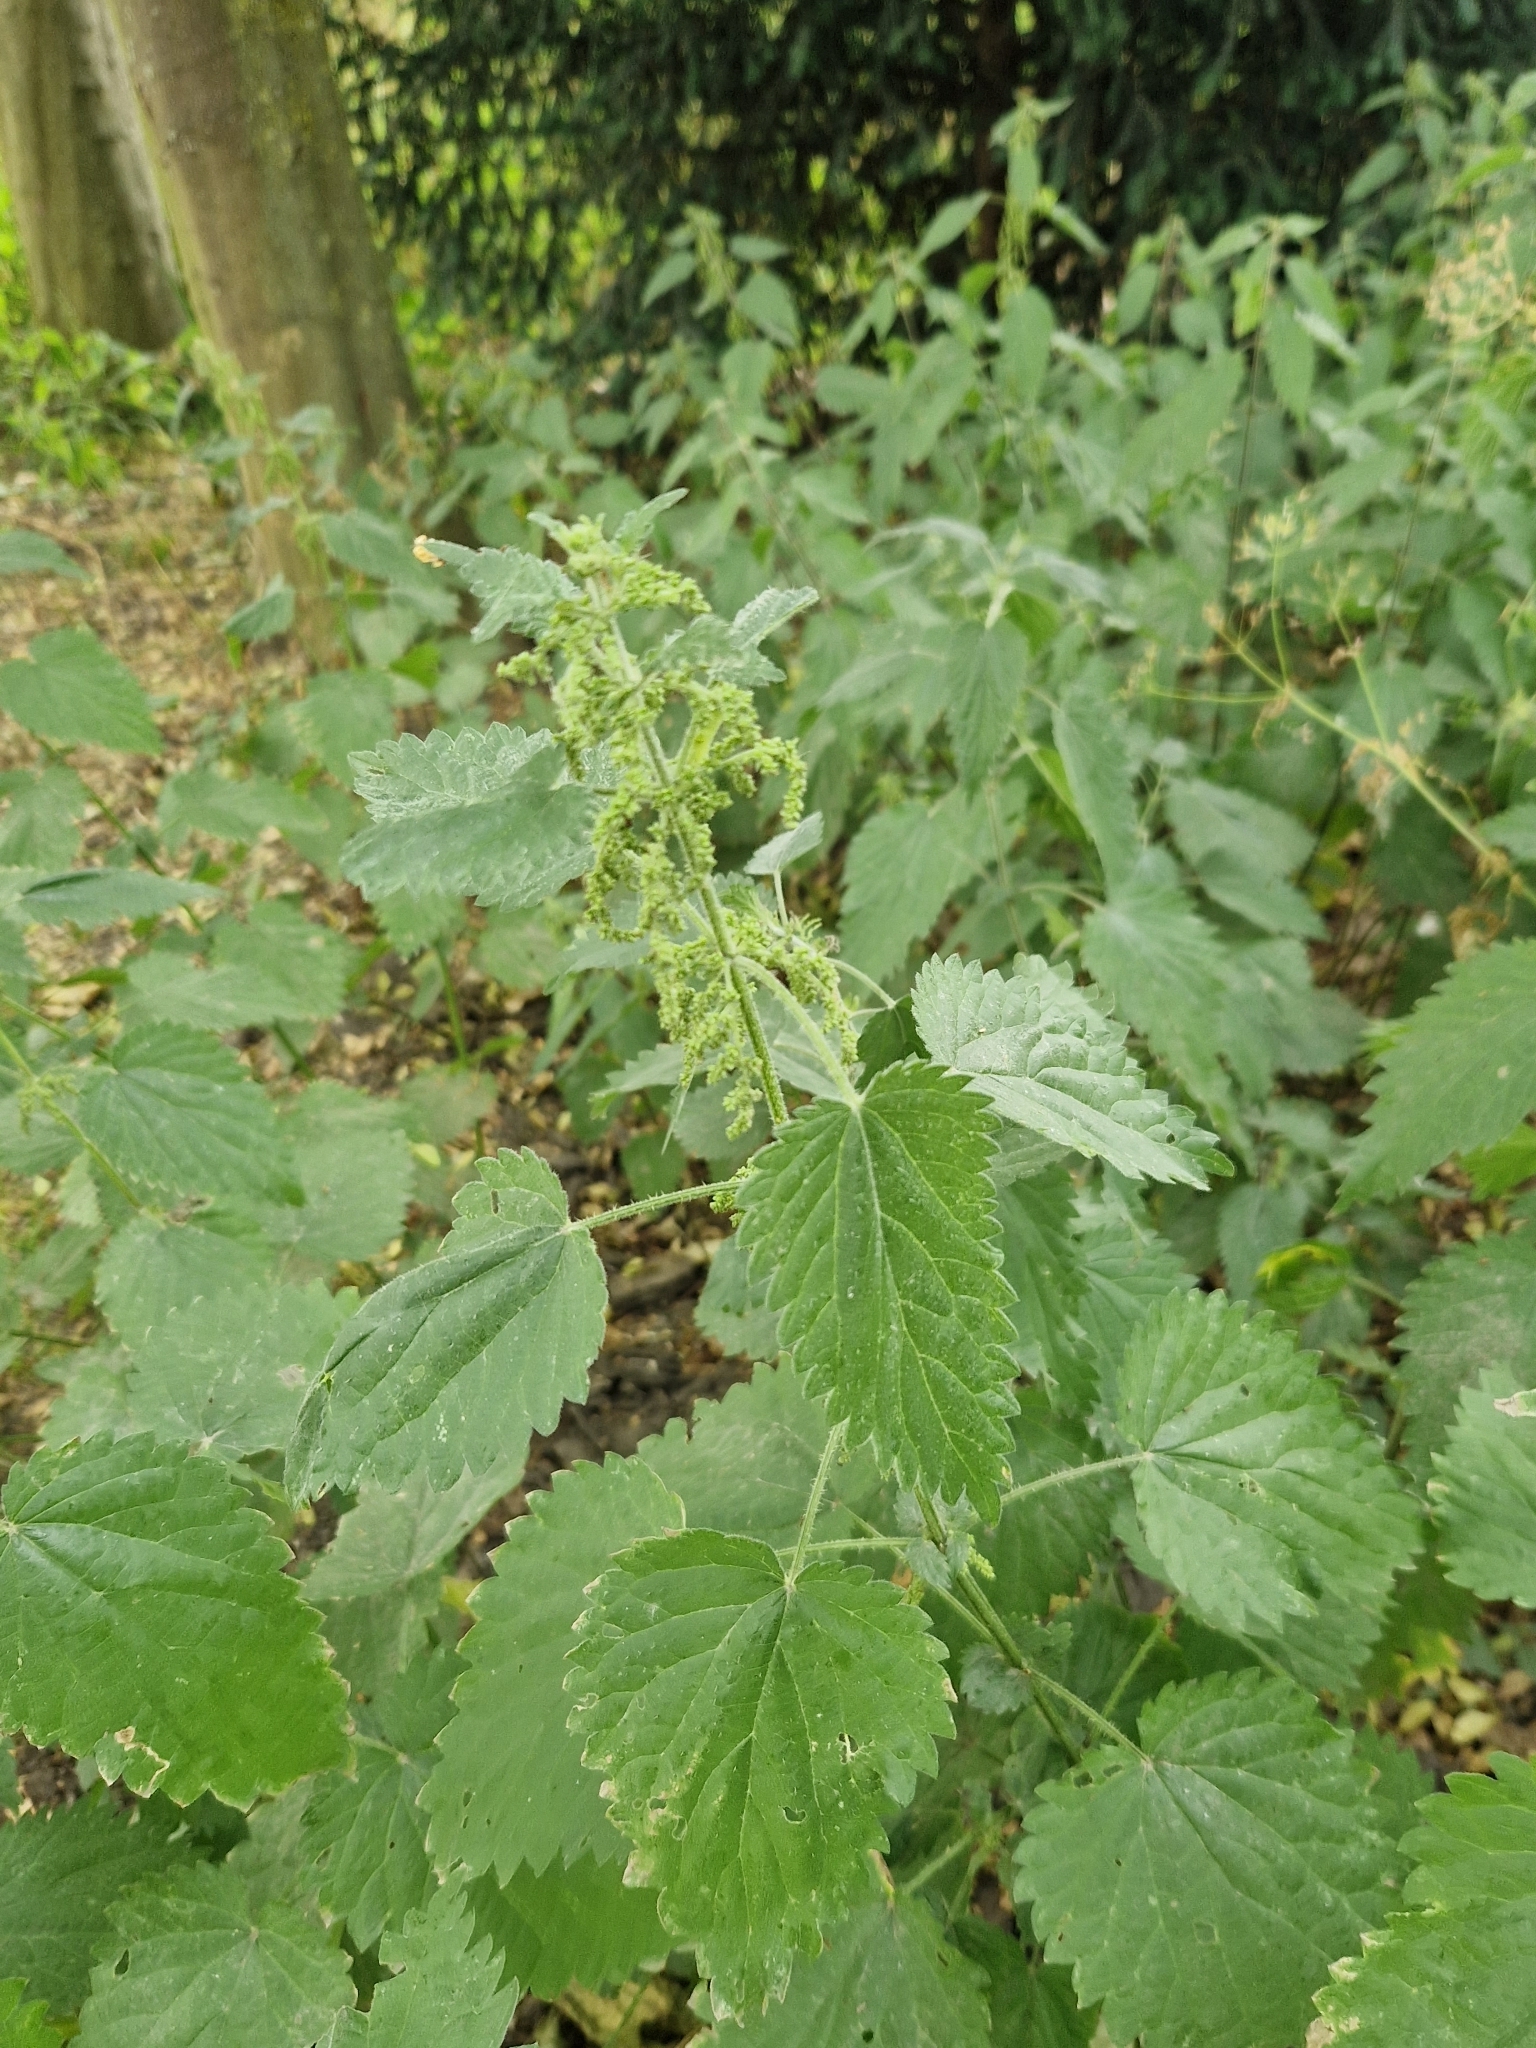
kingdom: Plantae
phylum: Tracheophyta
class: Magnoliopsida
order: Rosales
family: Urticaceae
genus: Urtica
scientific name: Urtica dioica
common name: Common nettle
